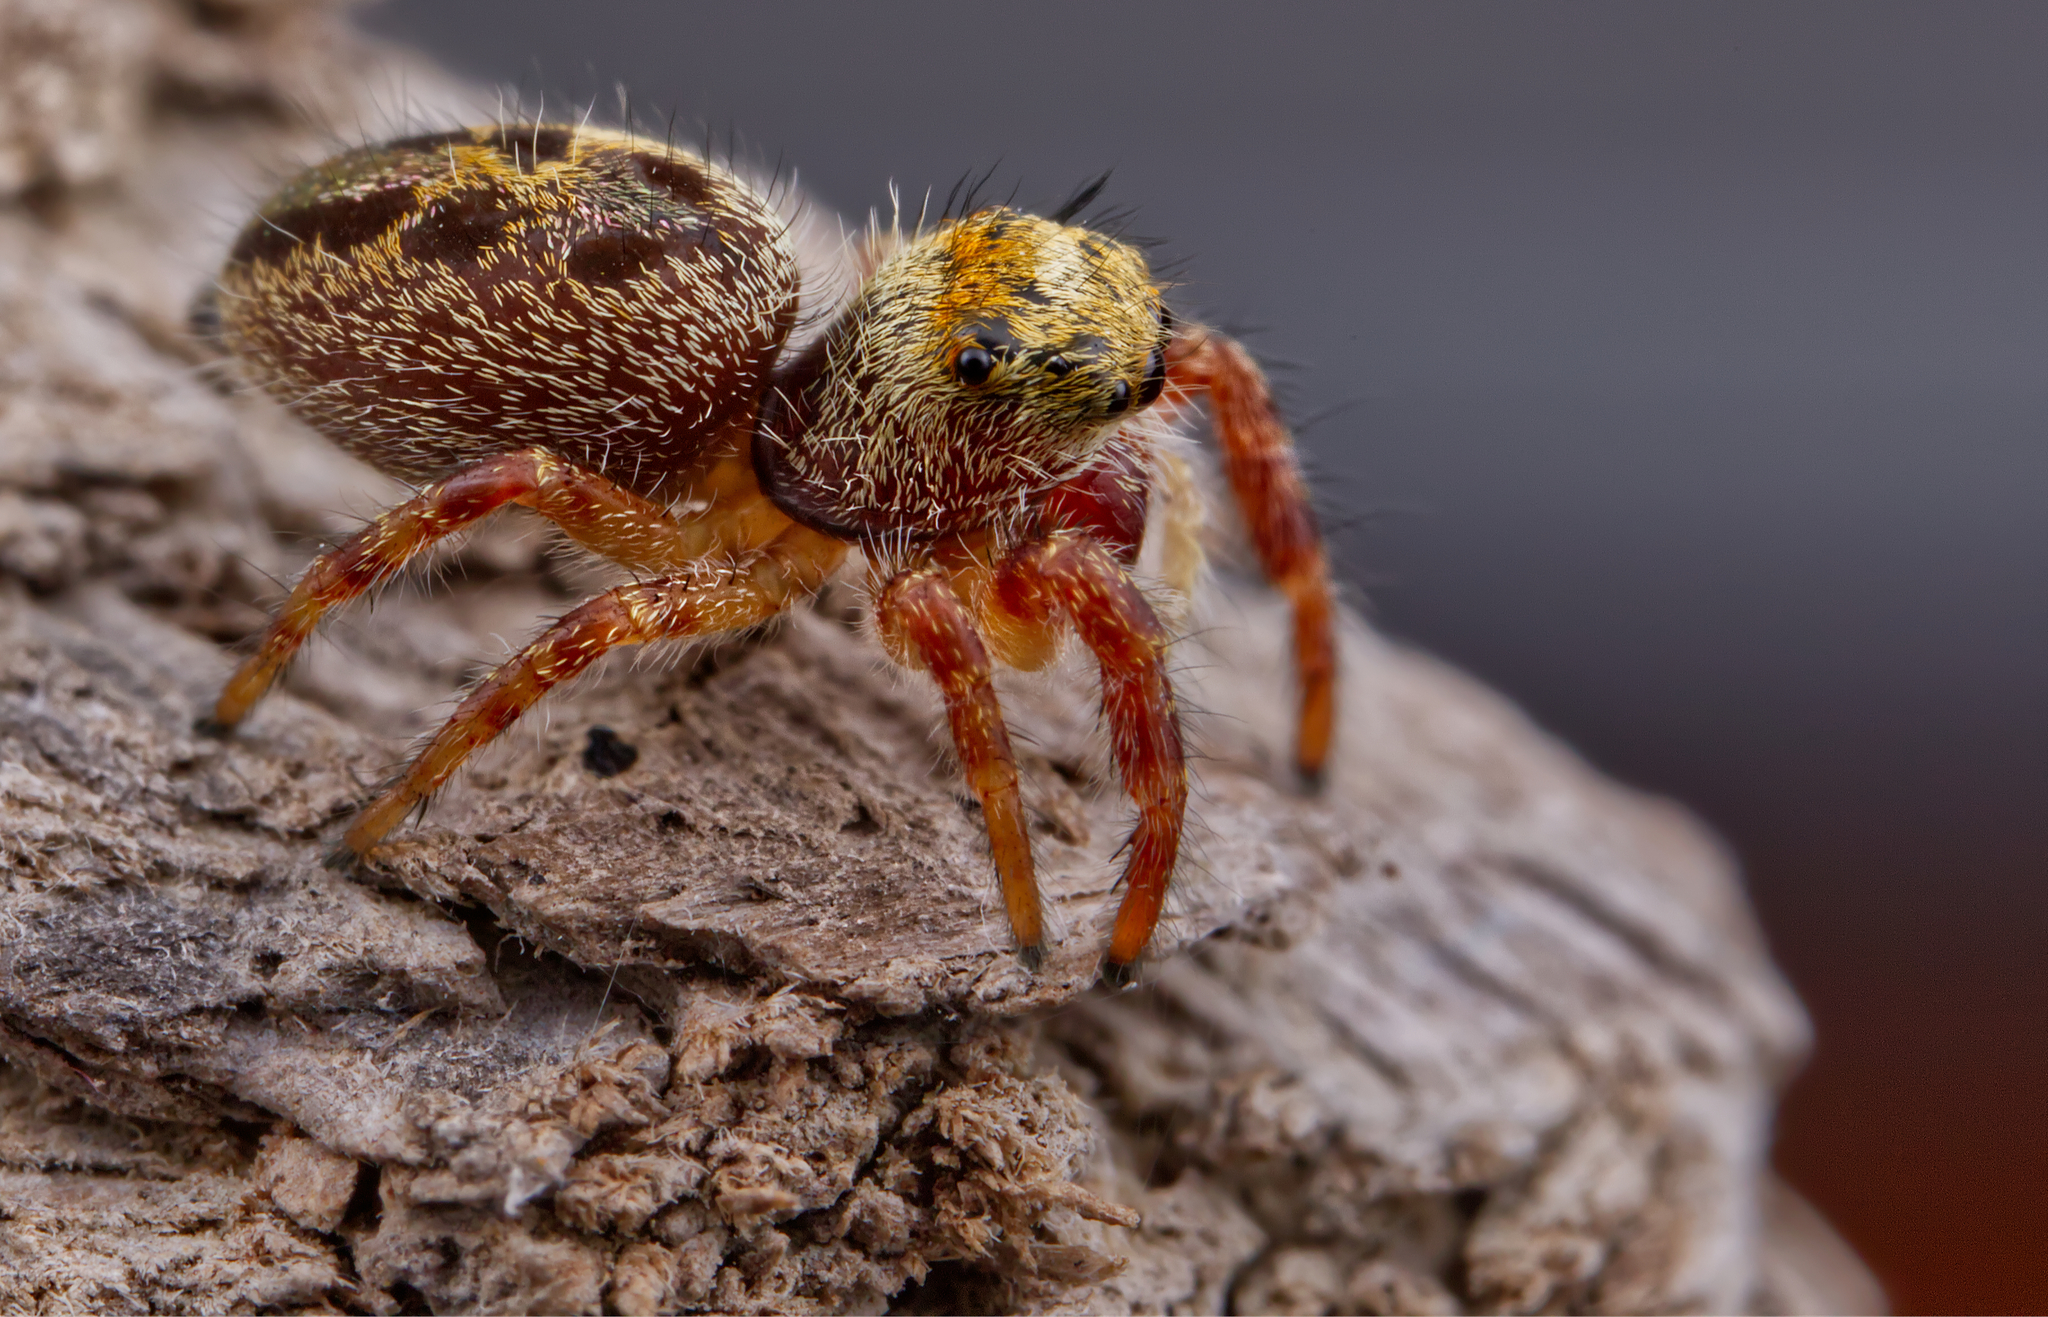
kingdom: Animalia
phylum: Arthropoda
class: Arachnida
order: Araneae
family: Salticidae
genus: Phidippus
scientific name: Phidippus princeps
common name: Grayish jumping spider
